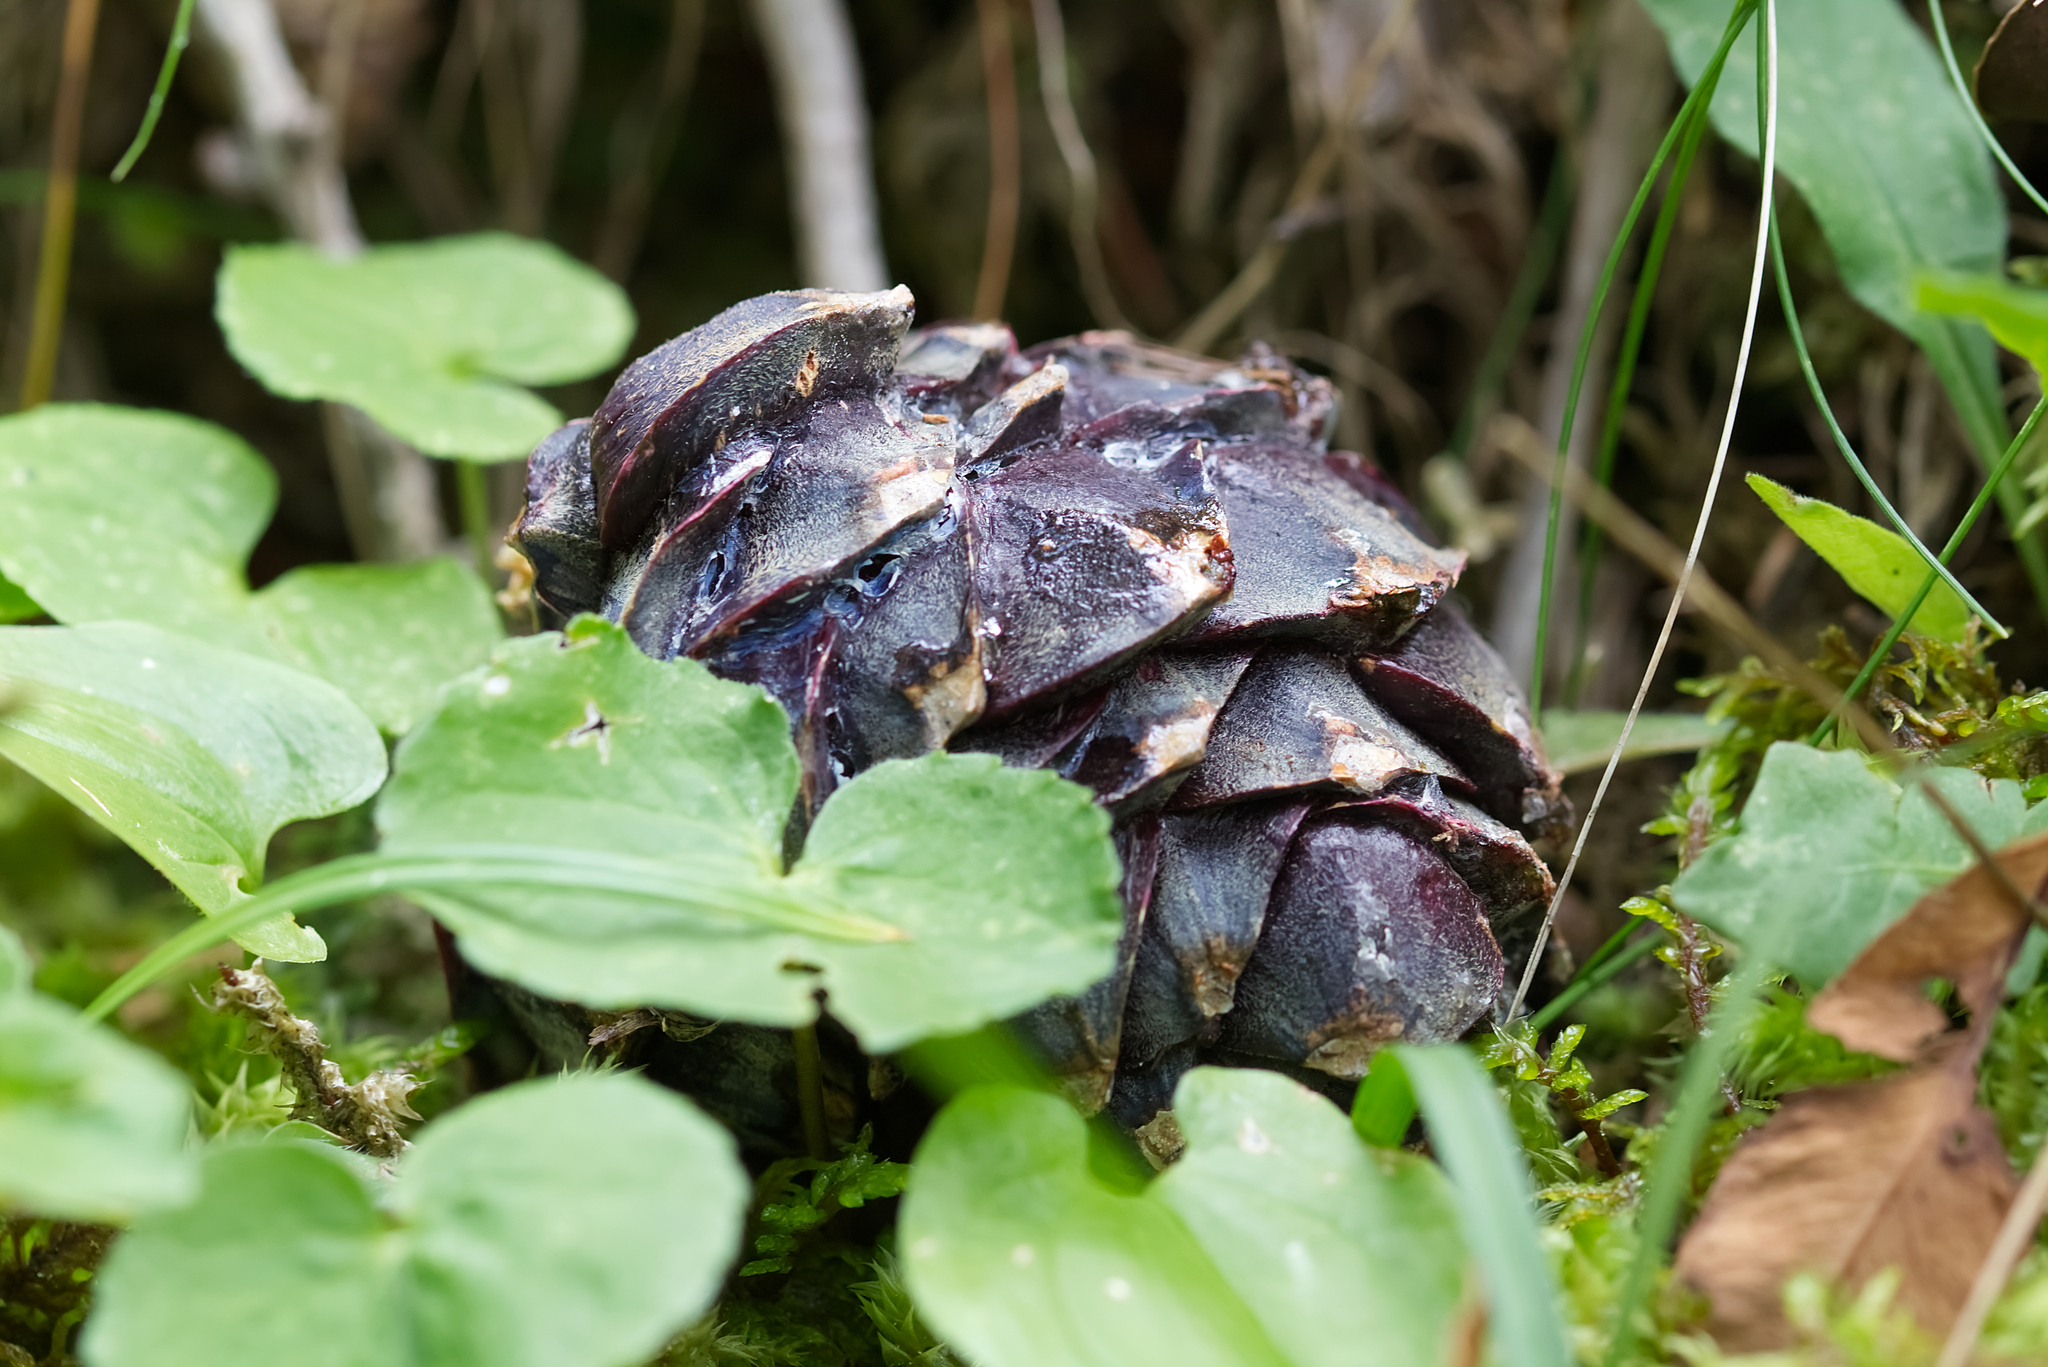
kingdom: Plantae
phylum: Tracheophyta
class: Pinopsida
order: Pinales
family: Pinaceae
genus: Pinus
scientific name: Pinus cembra
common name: Arolla pine
